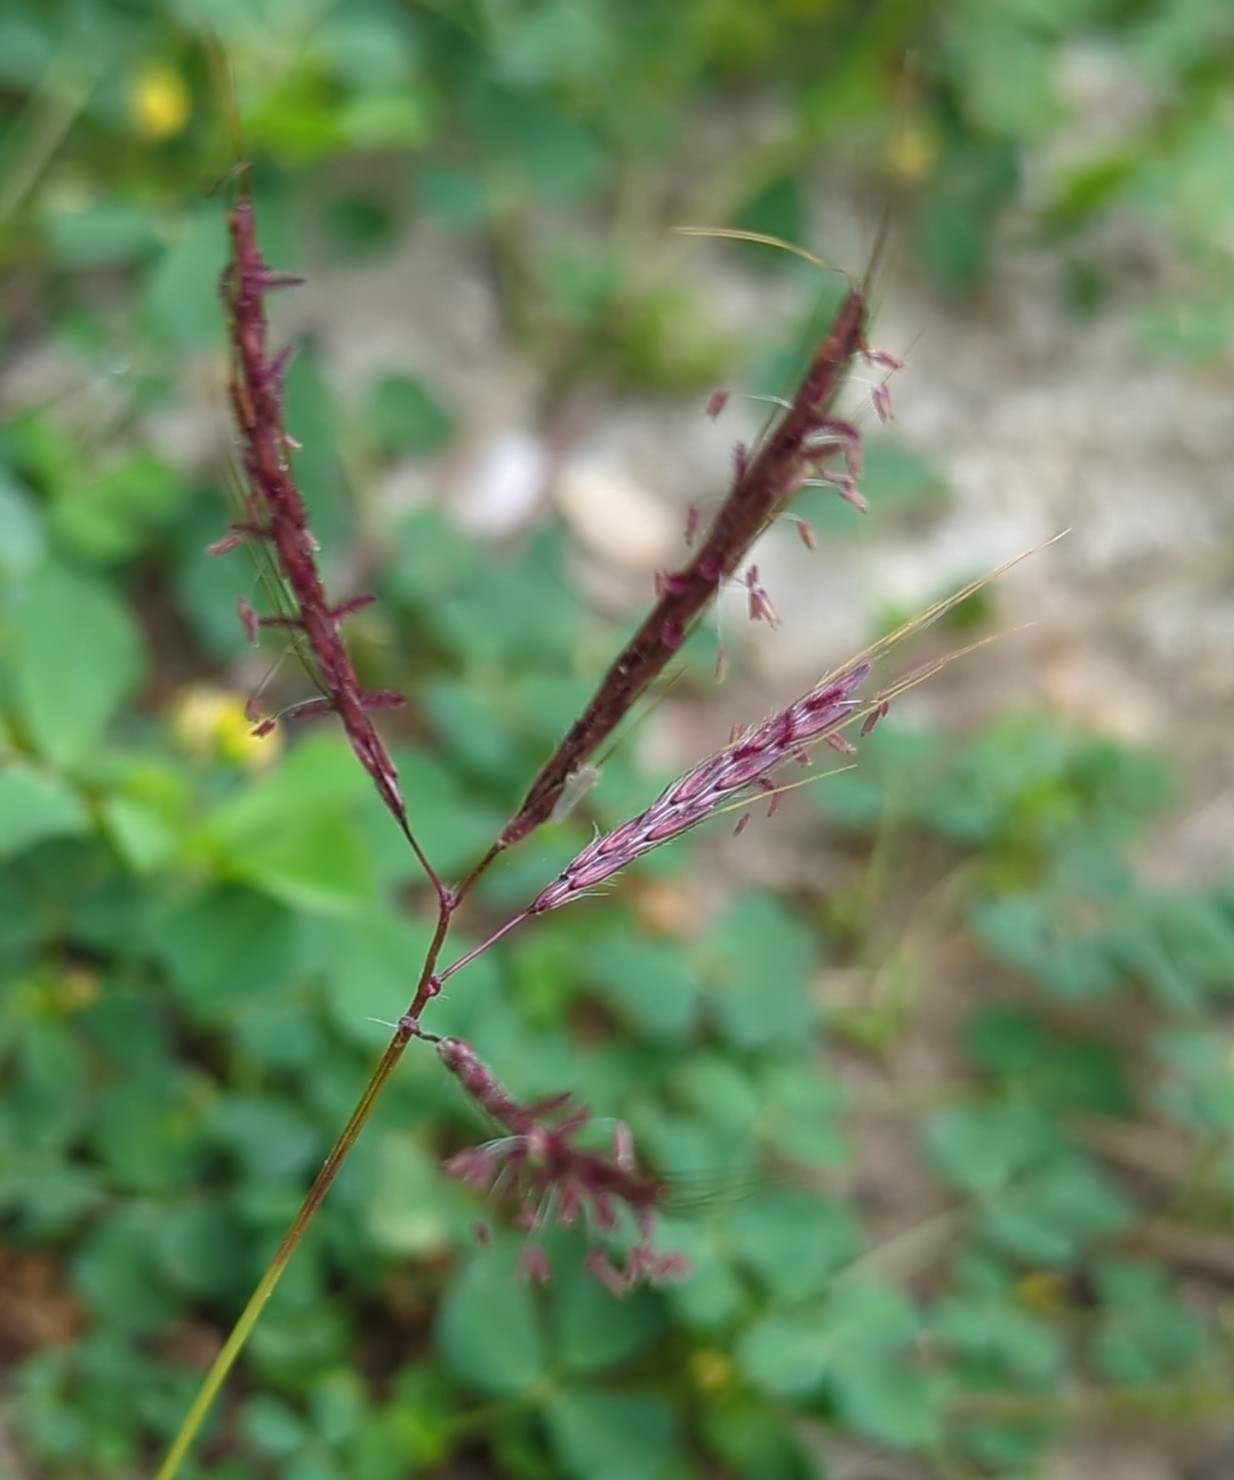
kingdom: Plantae
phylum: Tracheophyta
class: Liliopsida
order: Poales
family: Poaceae
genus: Bothriochloa
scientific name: Bothriochloa ischaemum
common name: Yellow bluestem
